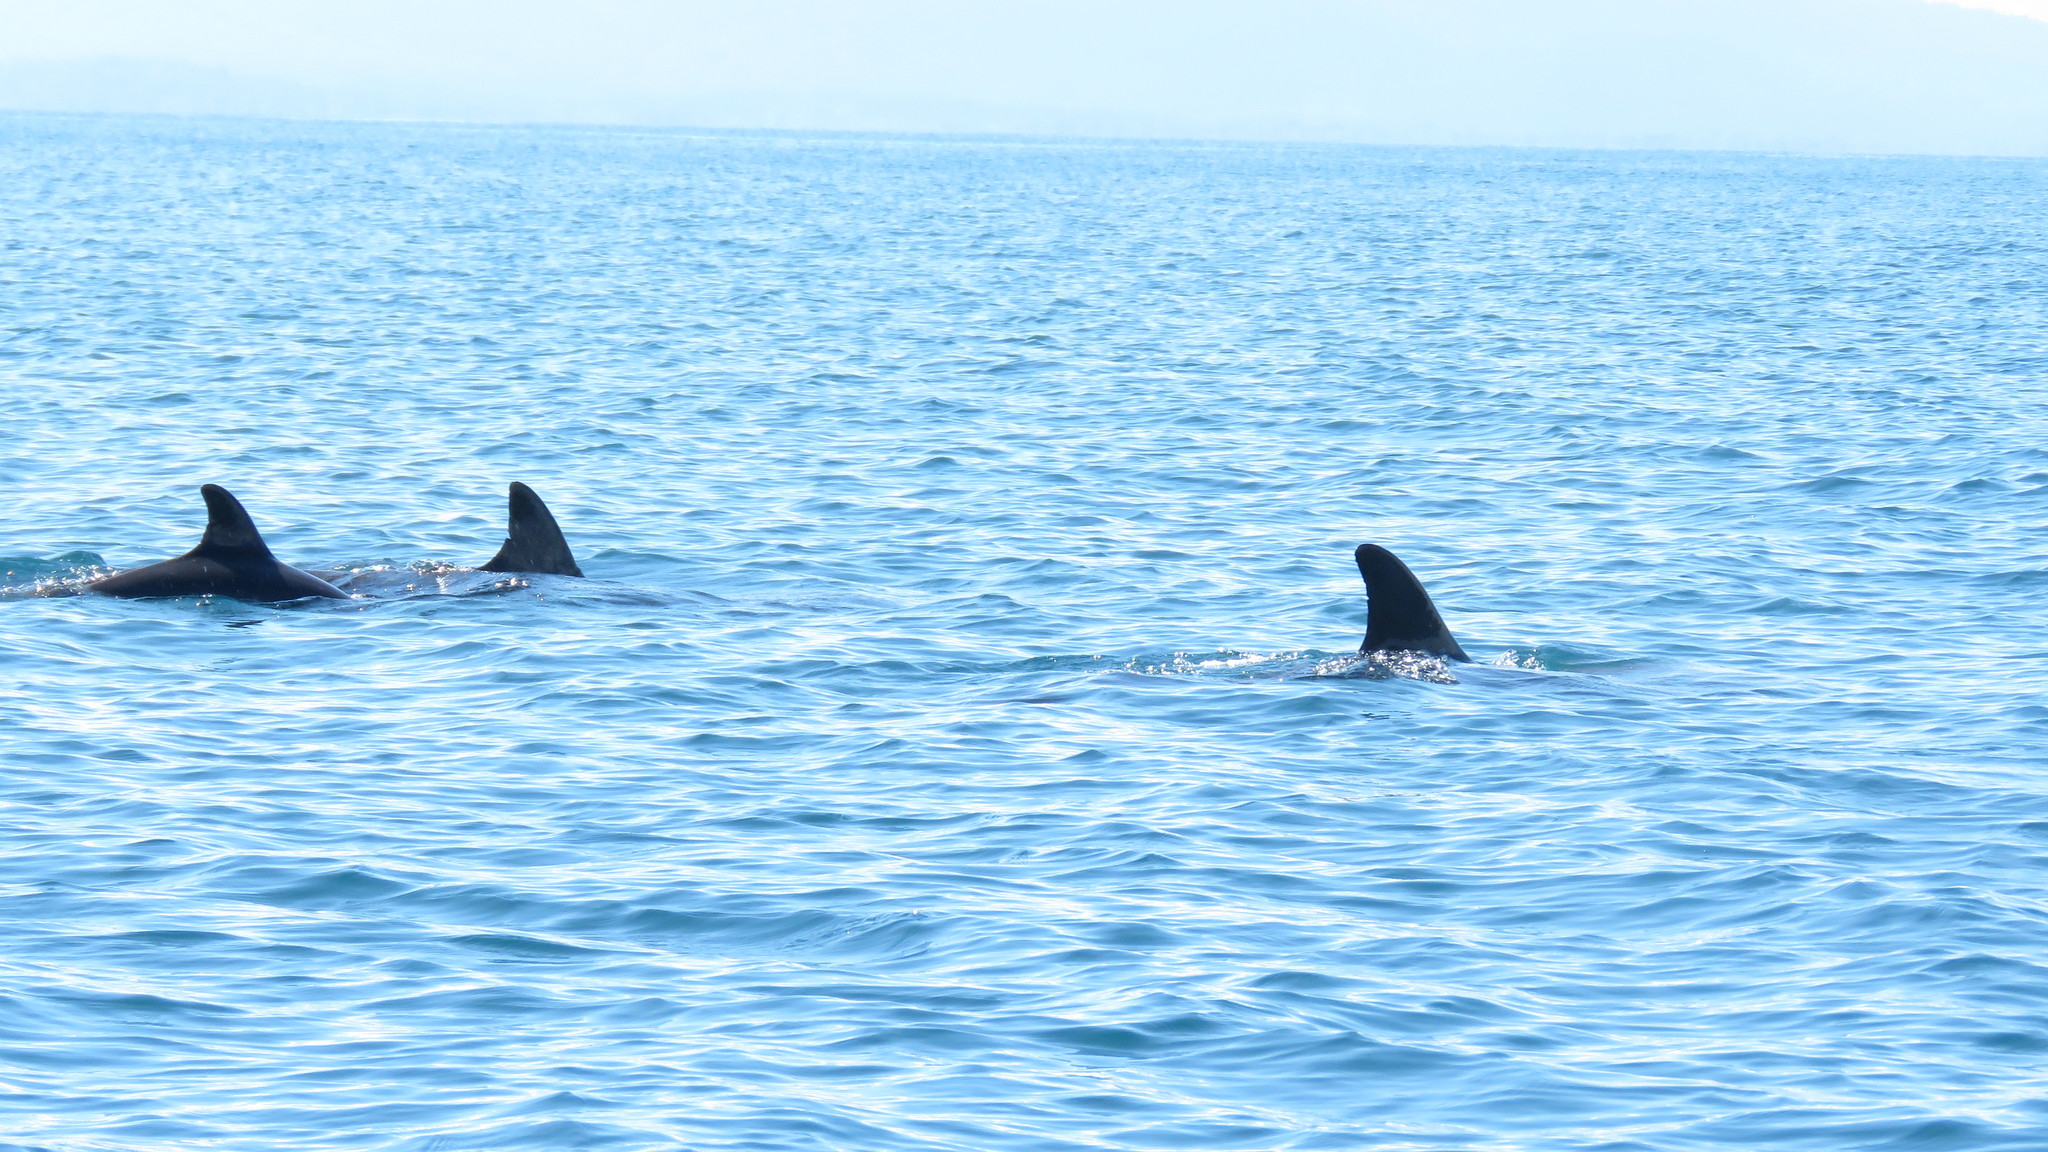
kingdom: Animalia
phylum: Chordata
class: Mammalia
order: Cetacea
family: Delphinidae
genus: Tursiops
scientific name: Tursiops truncatus
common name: Bottlenose dolphin
